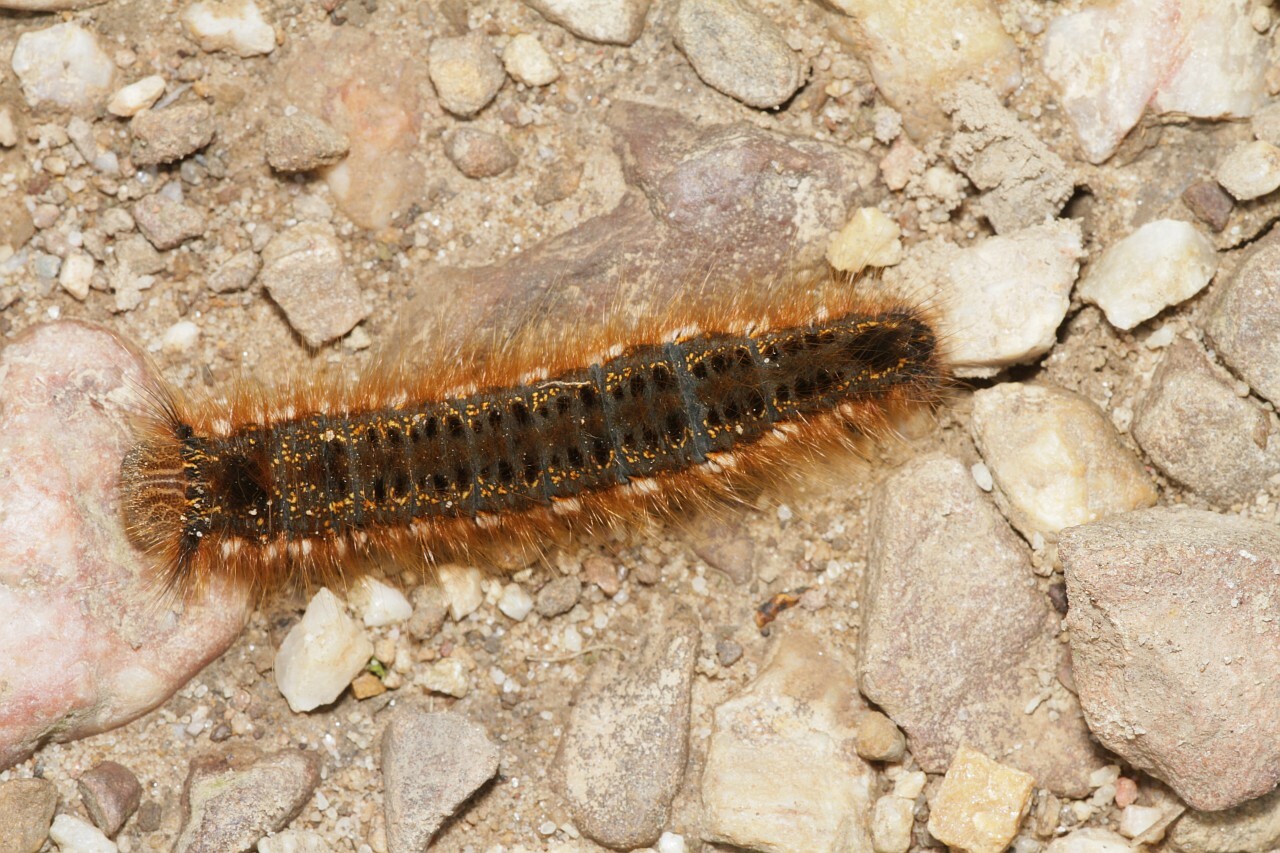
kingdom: Animalia
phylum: Arthropoda
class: Insecta
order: Lepidoptera
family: Lasiocampidae
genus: Euthrix
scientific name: Euthrix potatoria
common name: Drinker
